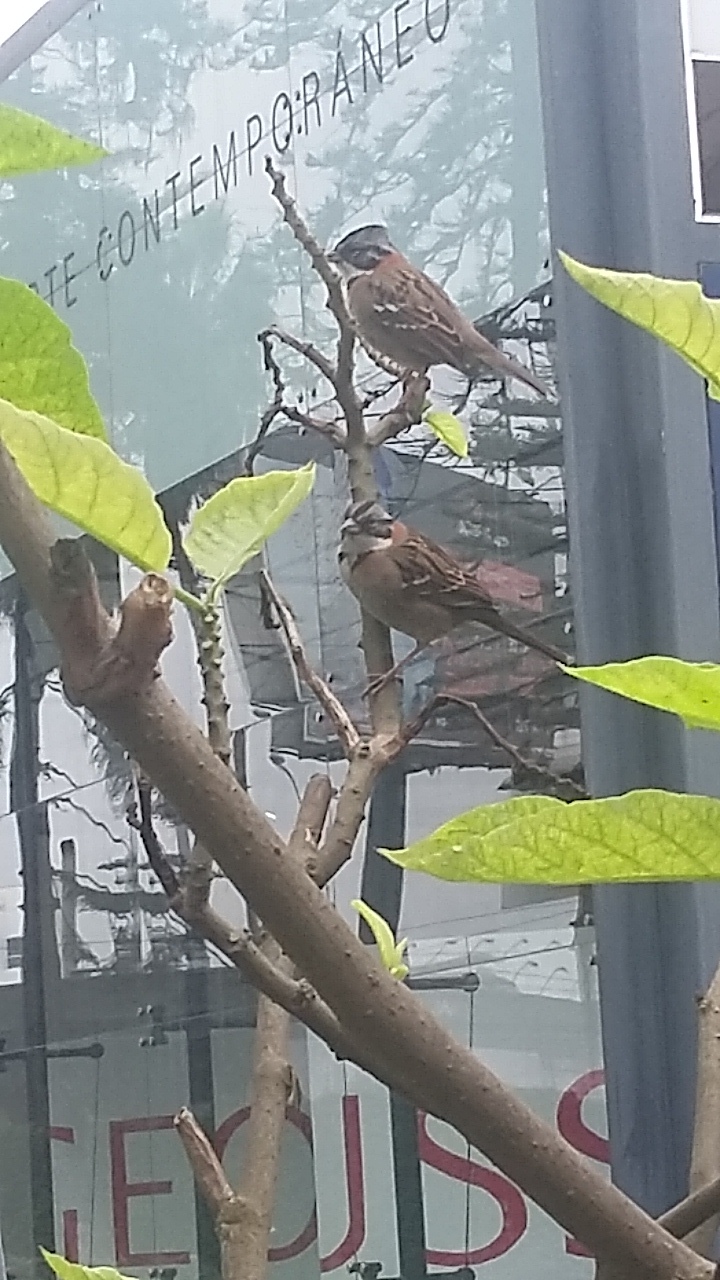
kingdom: Animalia
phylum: Chordata
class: Aves
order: Passeriformes
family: Passerellidae
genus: Zonotrichia
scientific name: Zonotrichia capensis
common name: Rufous-collared sparrow
